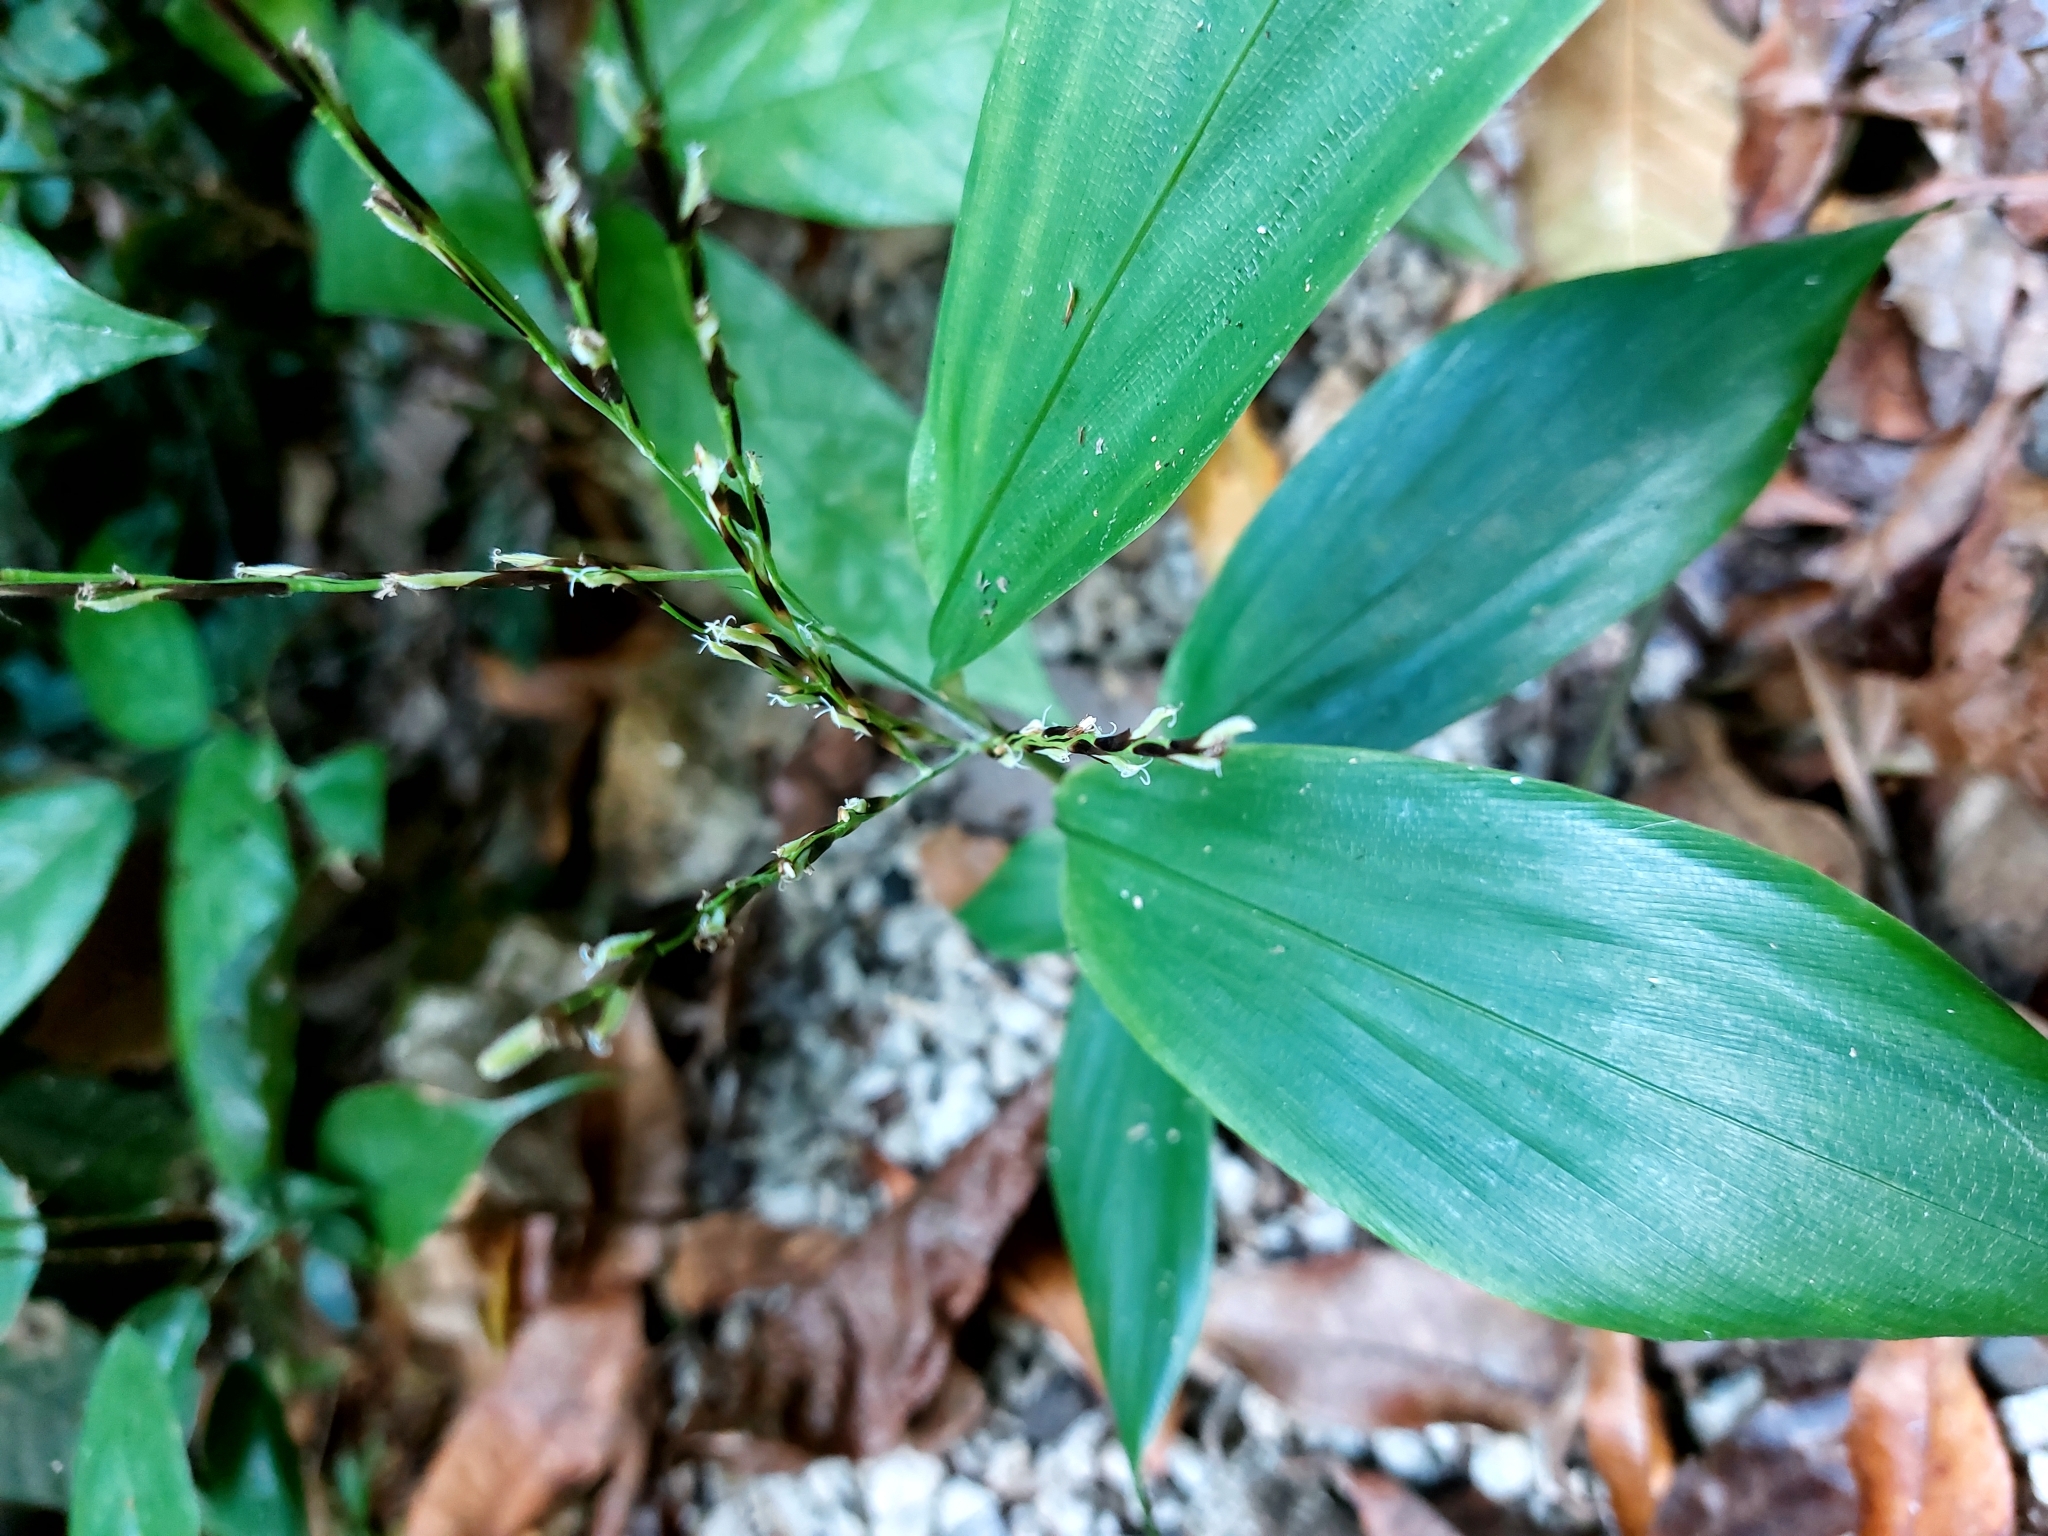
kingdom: Plantae
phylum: Tracheophyta
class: Liliopsida
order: Poales
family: Poaceae
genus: Pharus
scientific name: Pharus latifolius
